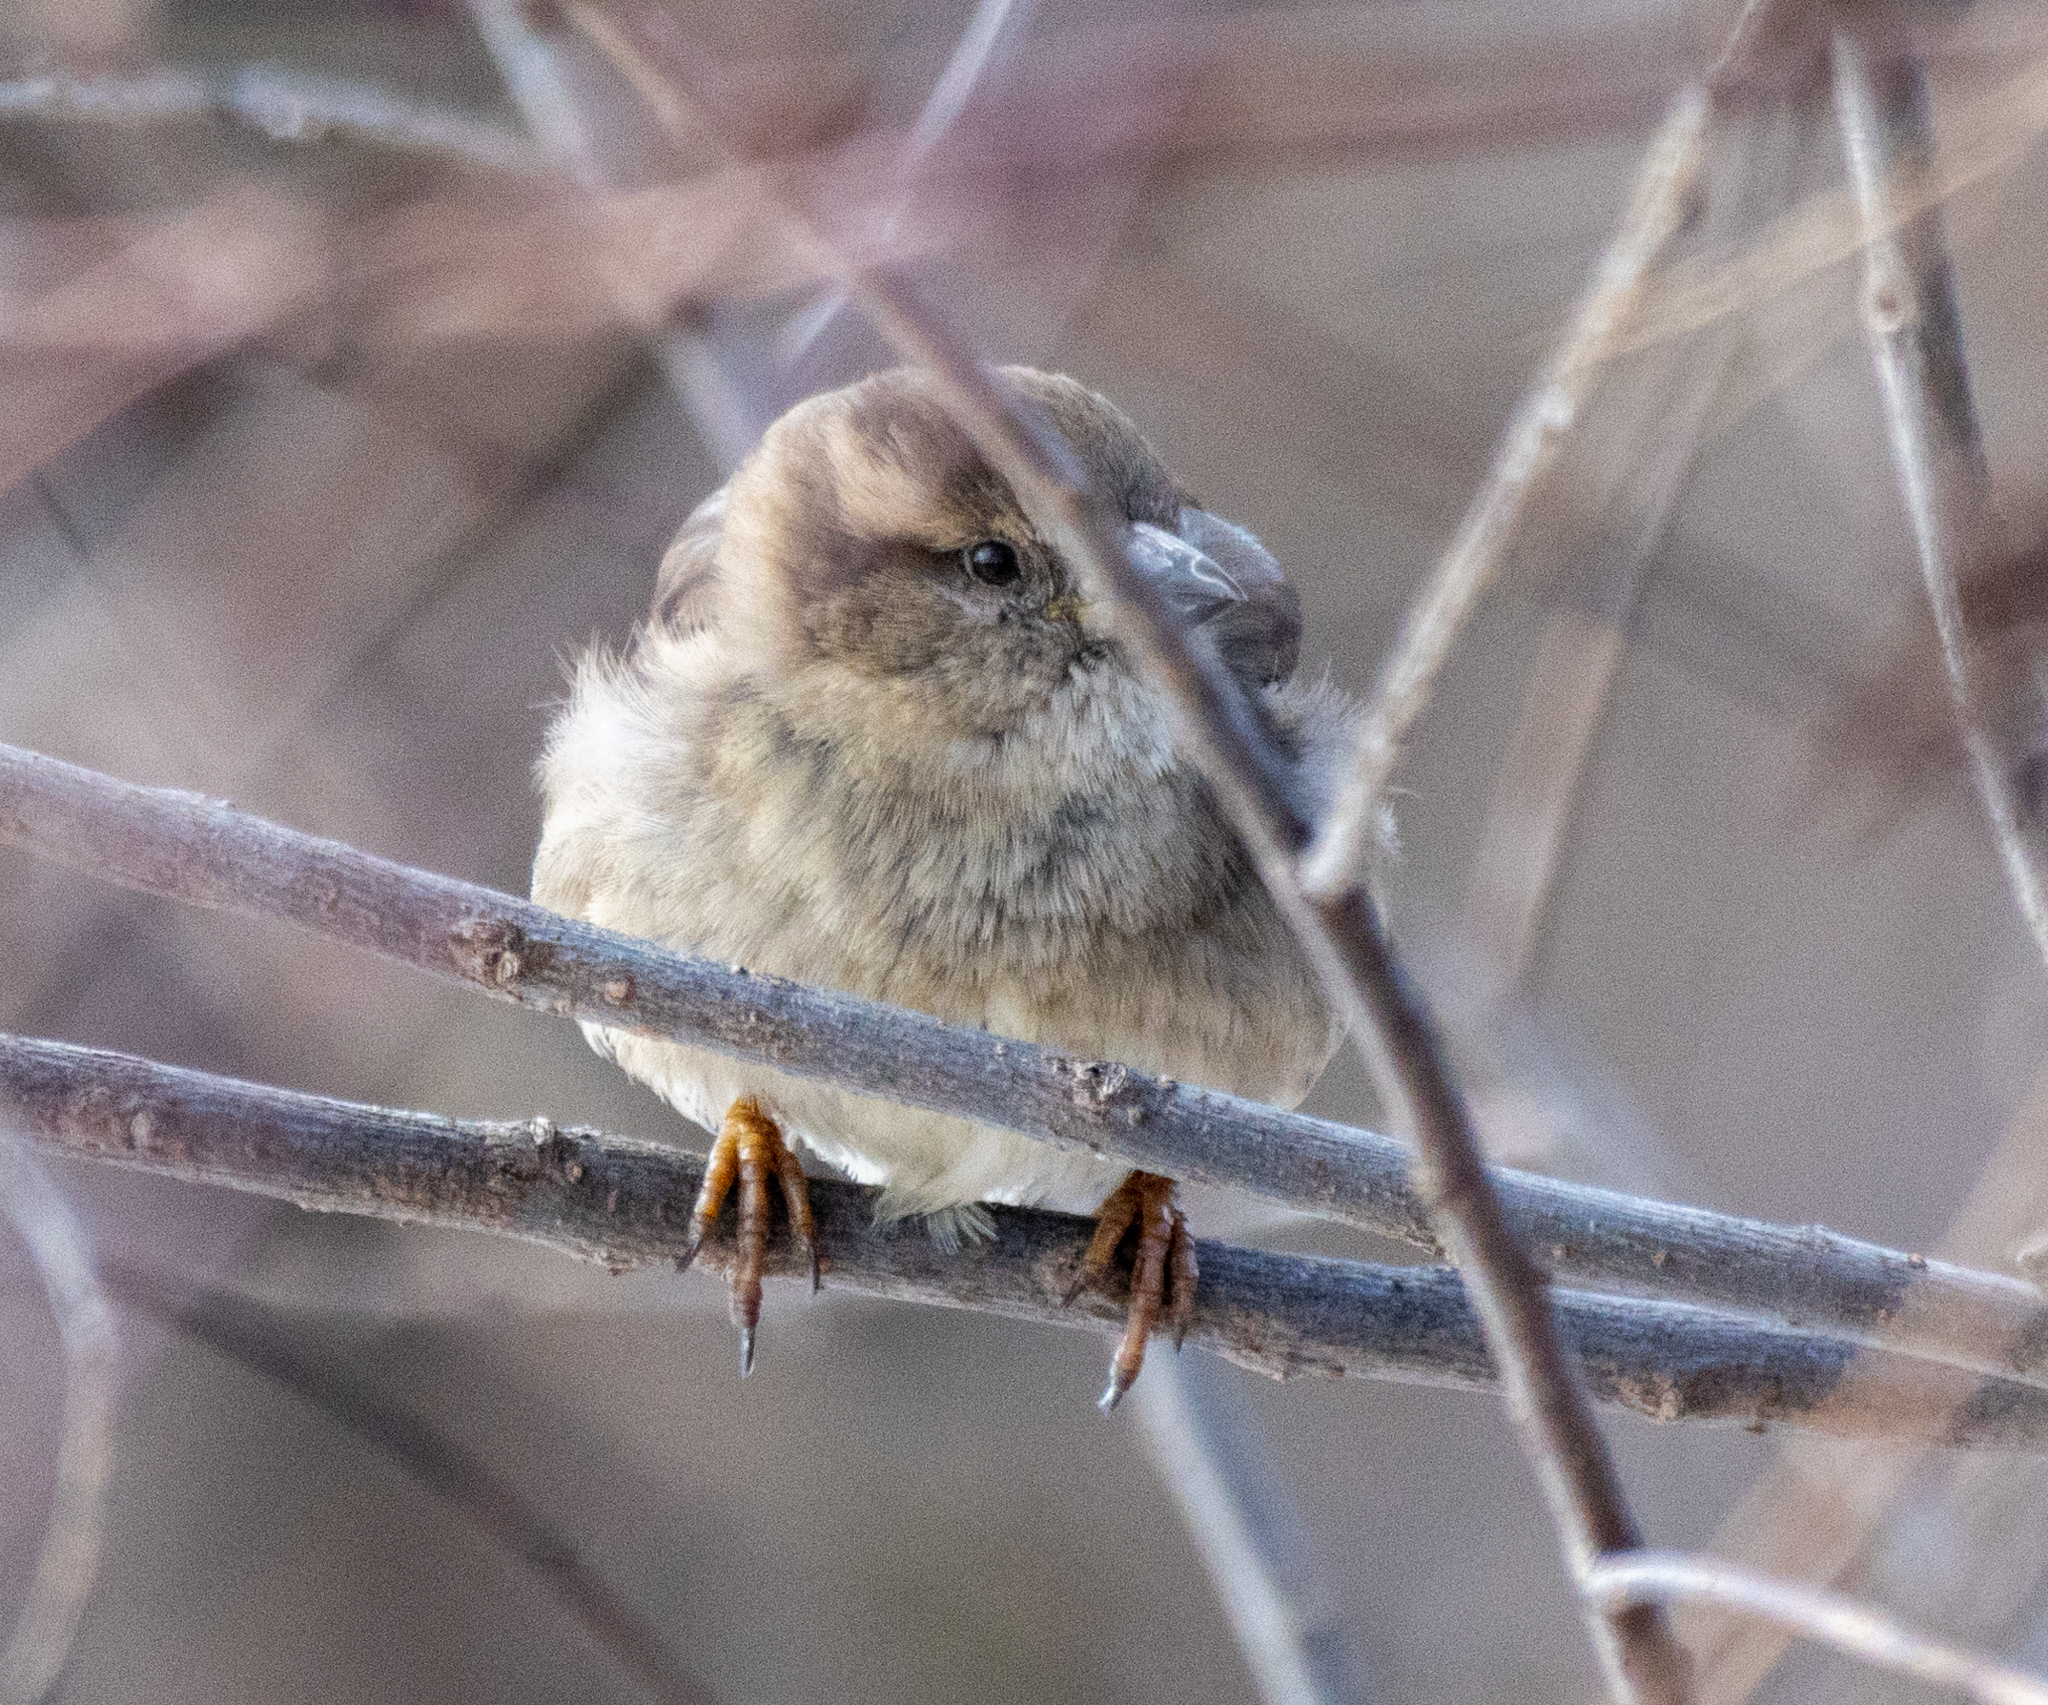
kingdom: Animalia
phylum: Chordata
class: Aves
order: Passeriformes
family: Passeridae
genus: Passer
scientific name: Passer domesticus
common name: House sparrow
